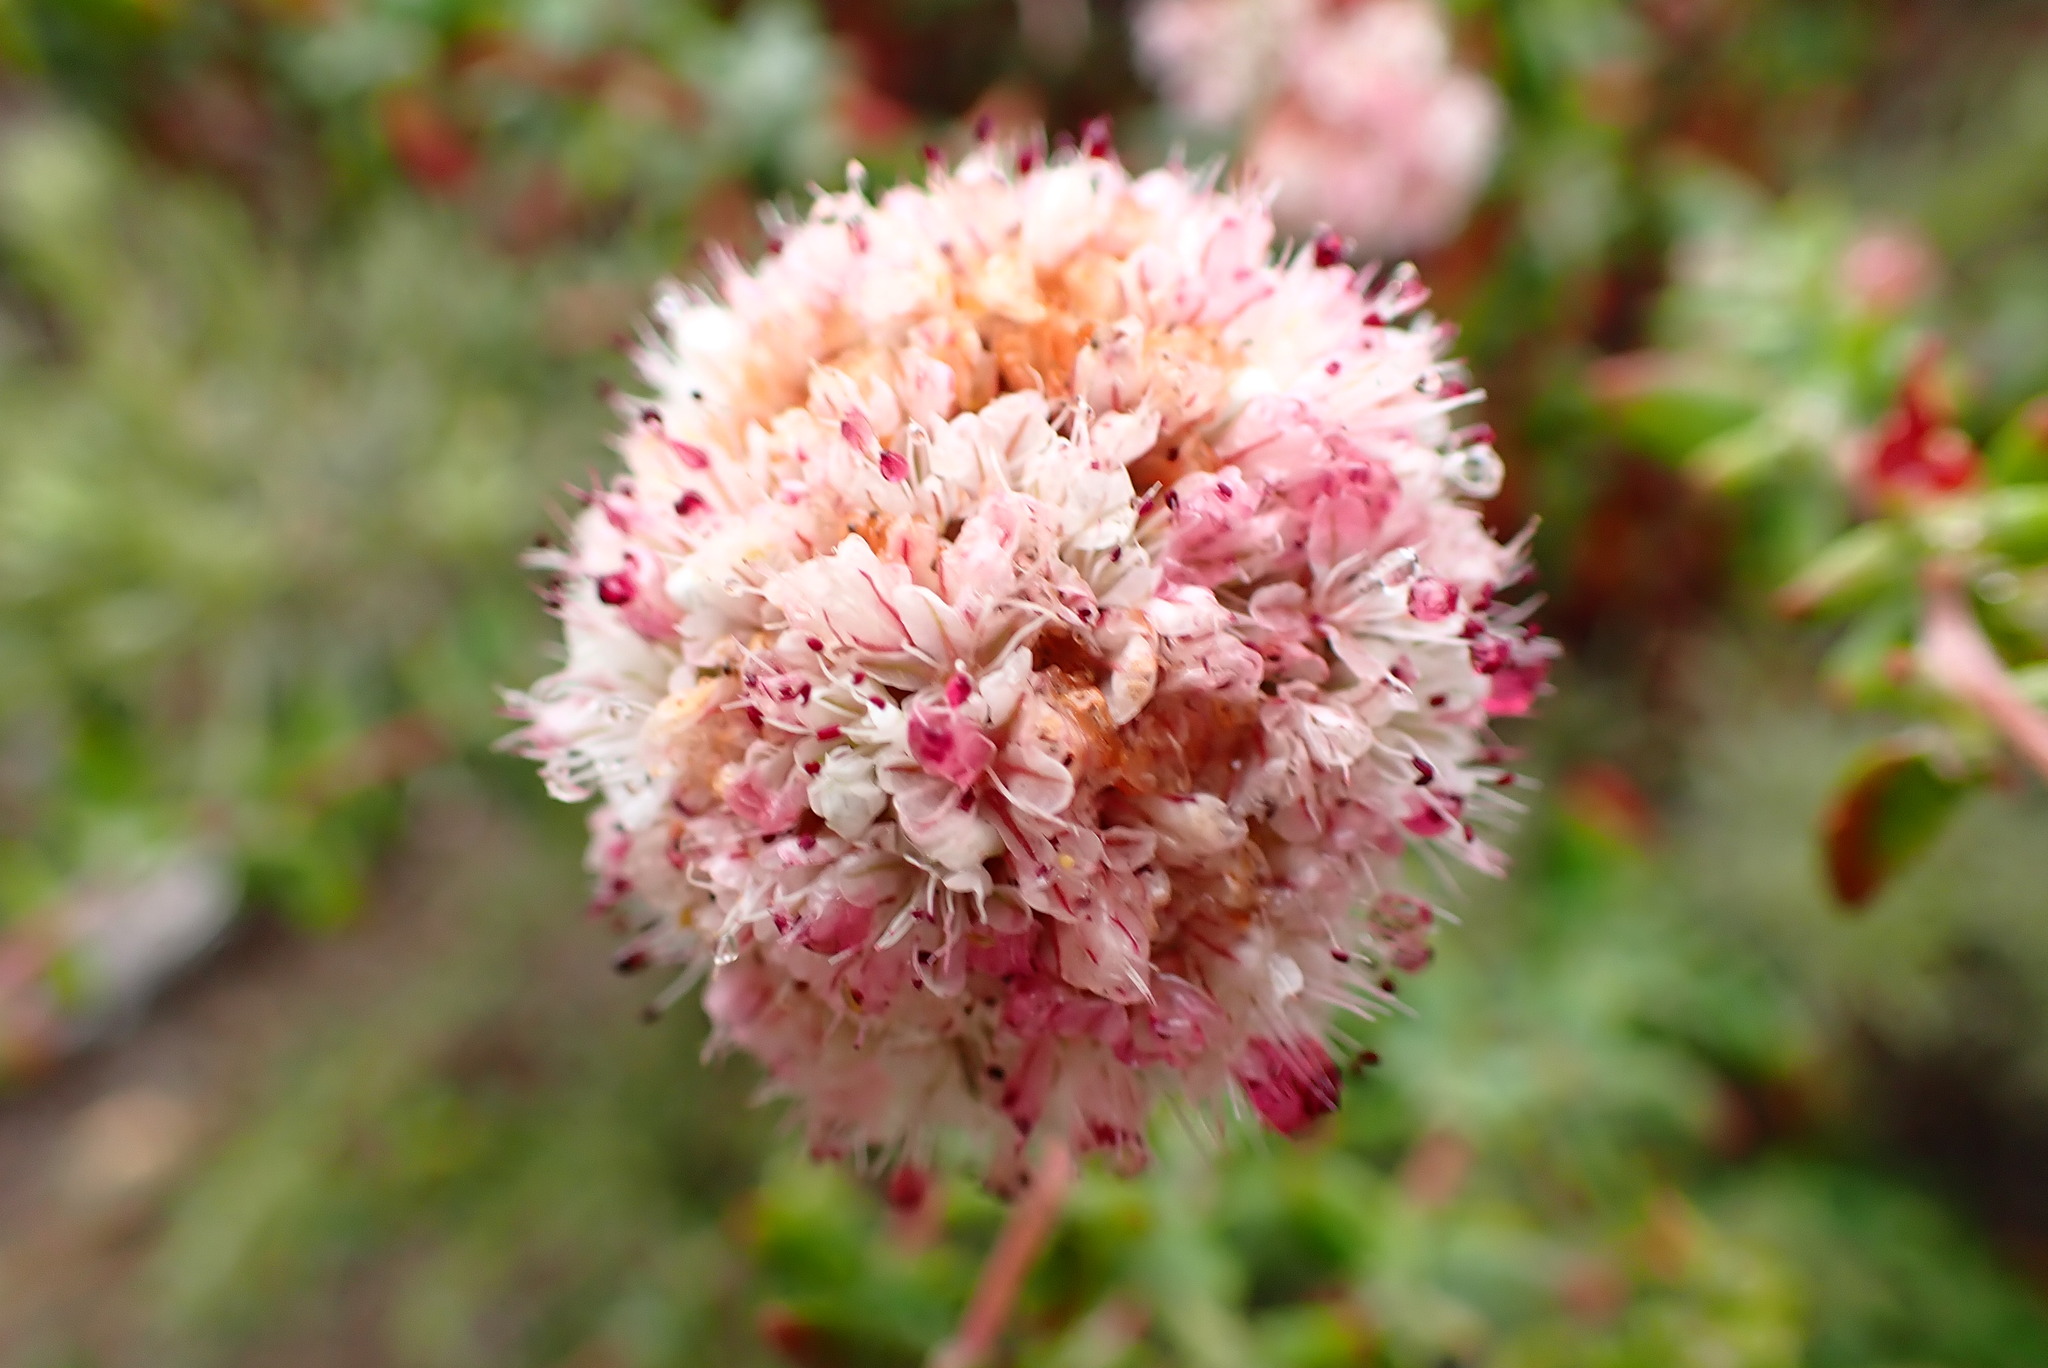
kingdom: Plantae
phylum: Tracheophyta
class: Magnoliopsida
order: Caryophyllales
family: Polygonaceae
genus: Eriogonum
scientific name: Eriogonum parvifolium
